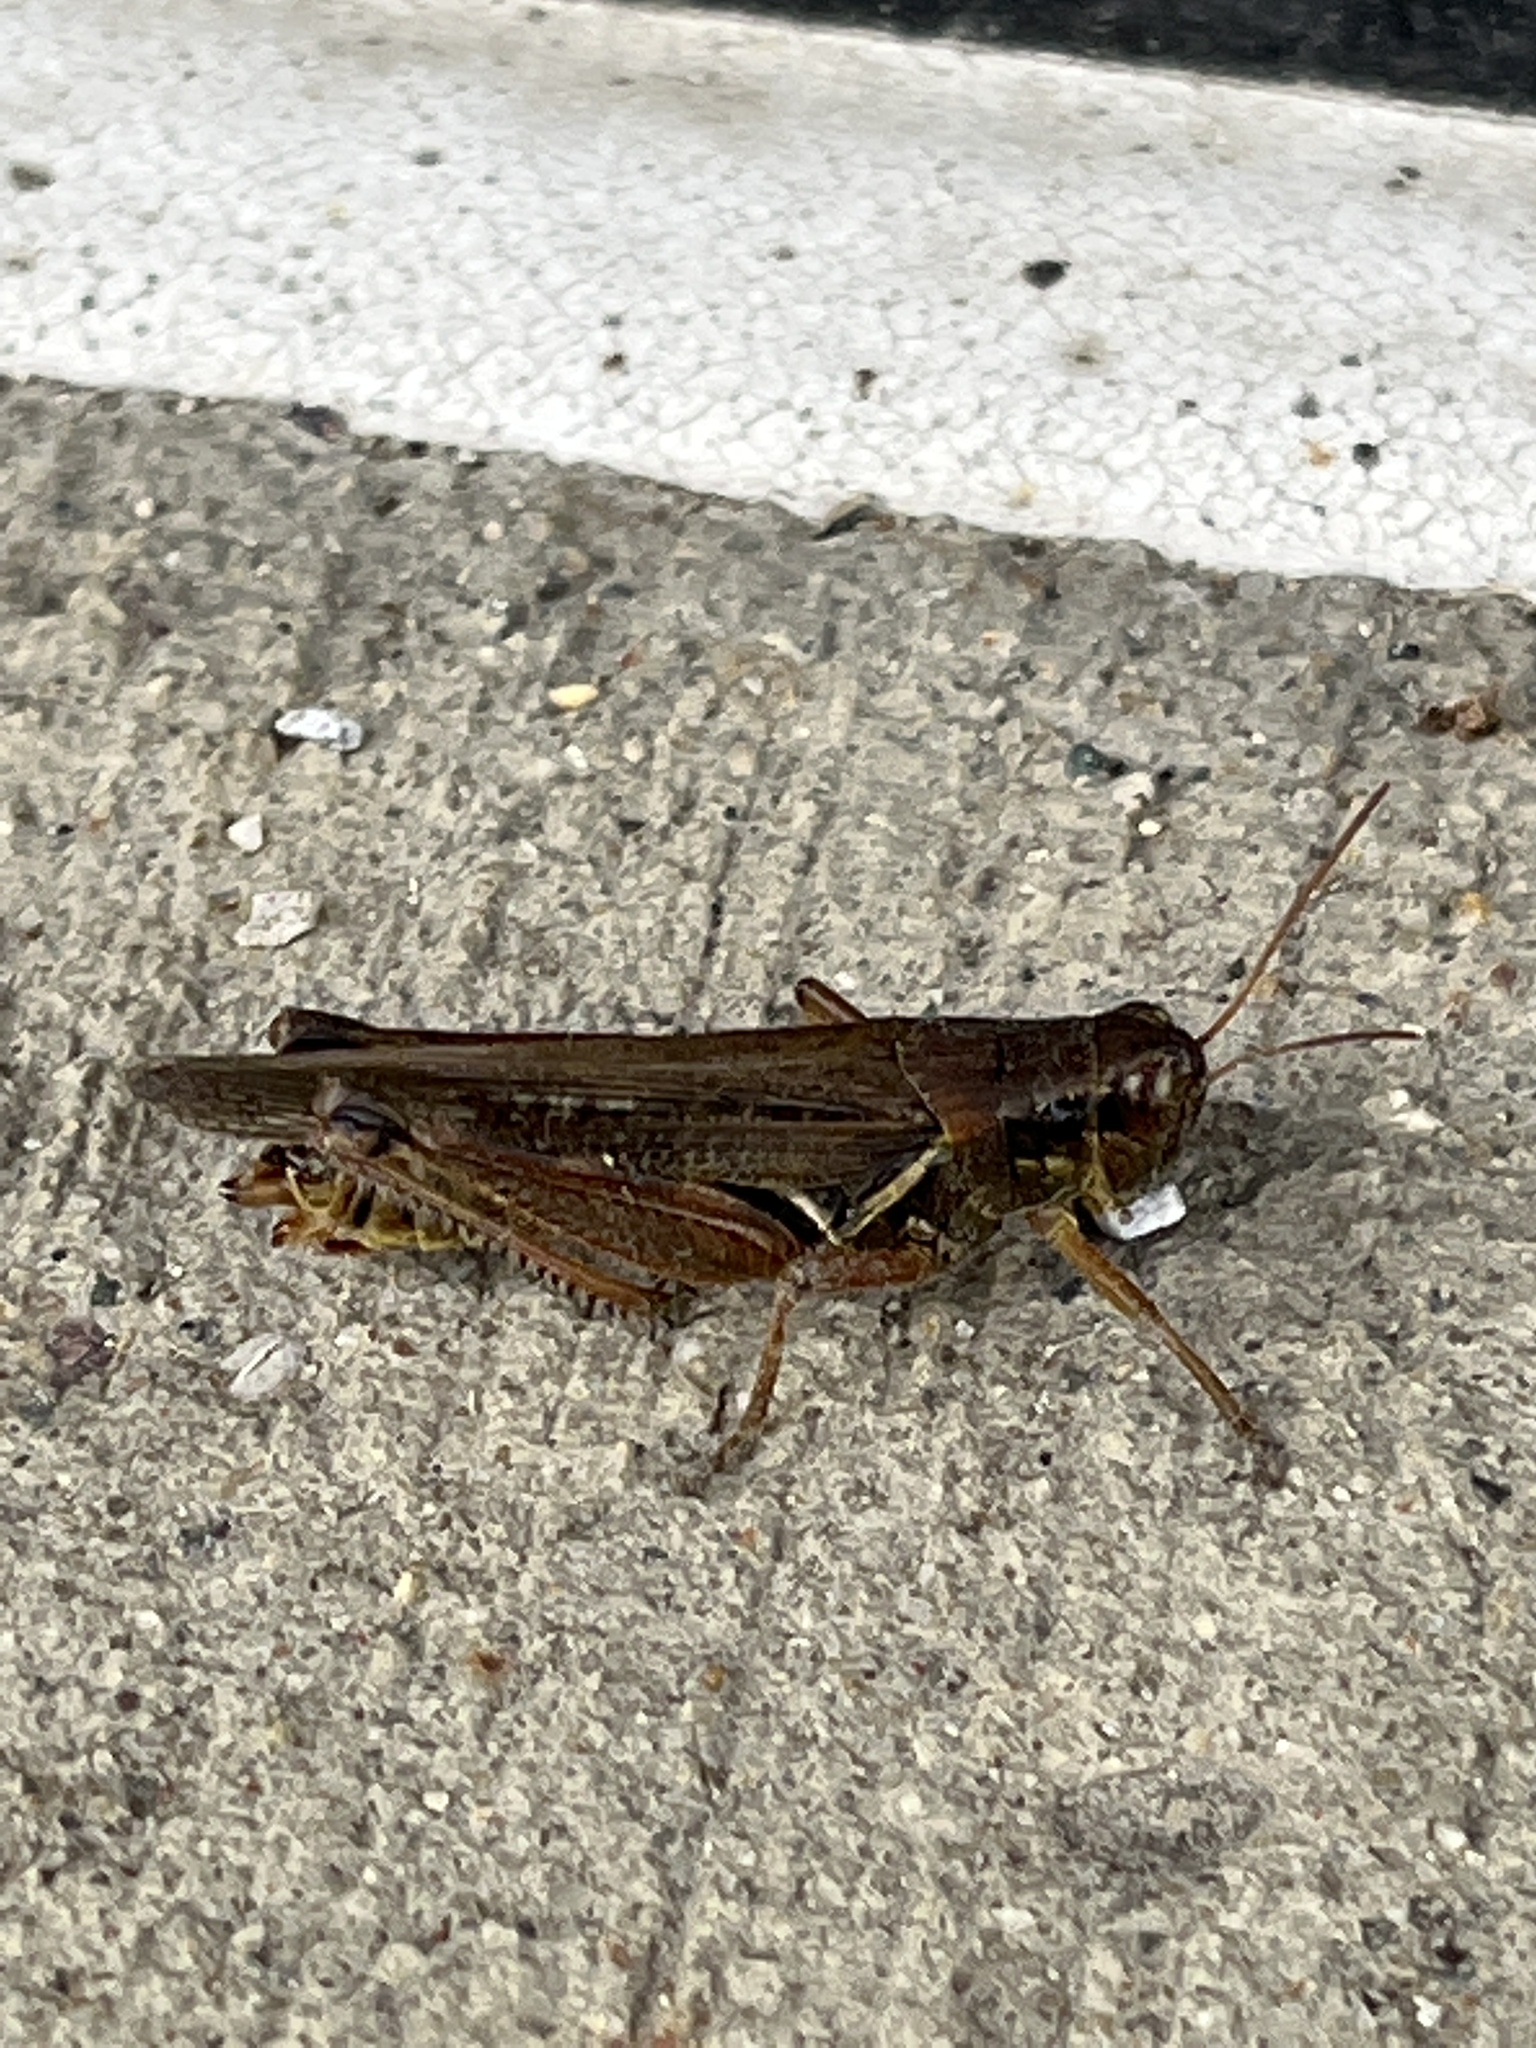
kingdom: Animalia
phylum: Arthropoda
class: Insecta
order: Orthoptera
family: Acrididae
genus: Melanoplus
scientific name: Melanoplus femurrubrum
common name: Red-legged grasshopper
